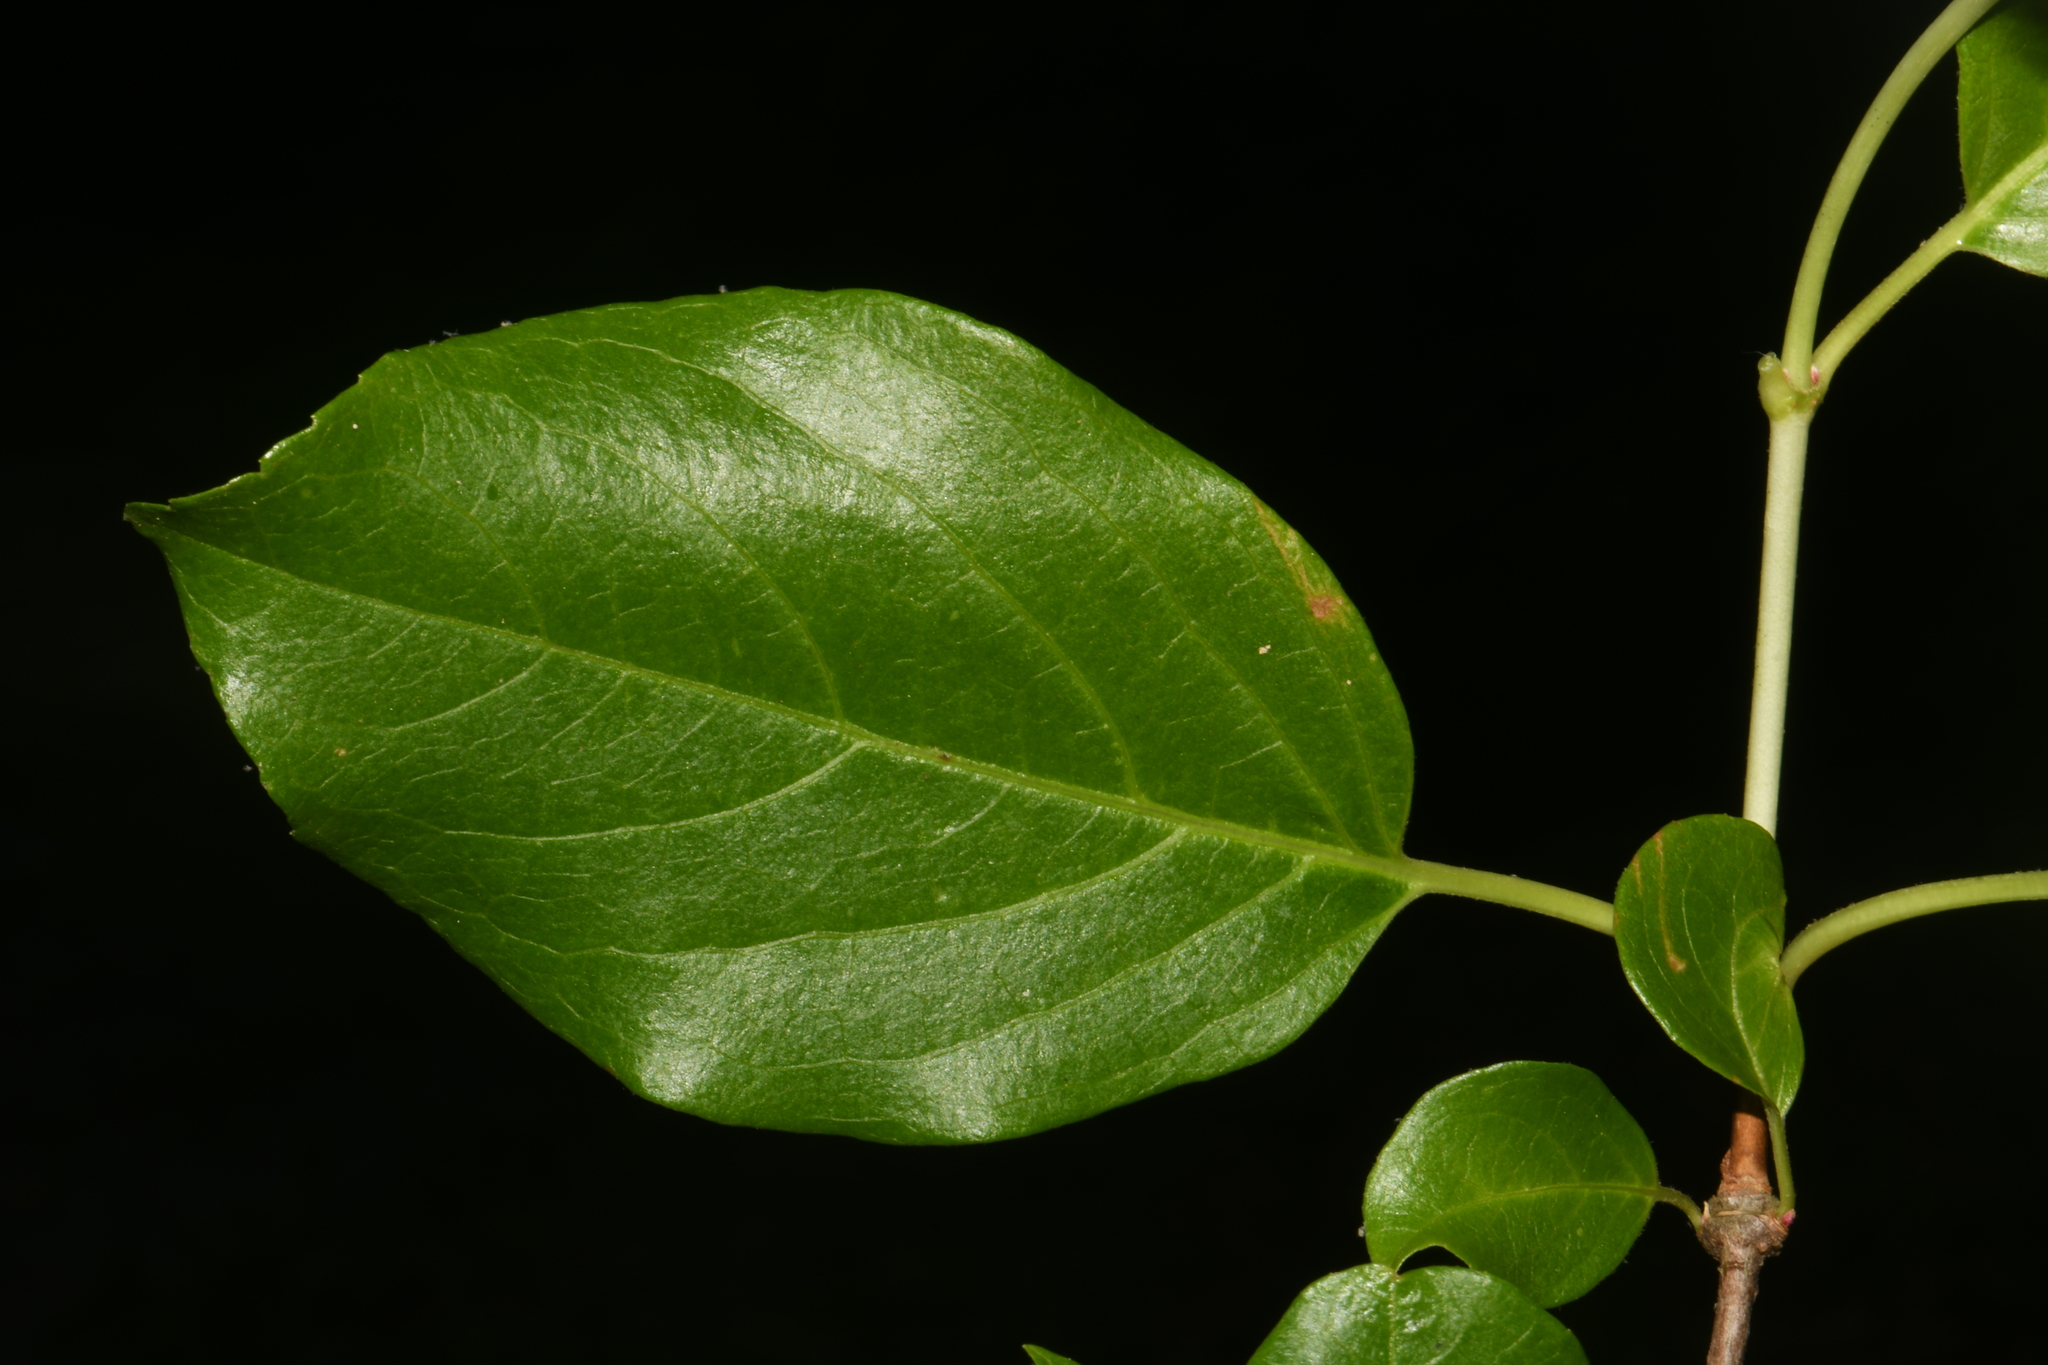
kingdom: Plantae
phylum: Tracheophyta
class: Magnoliopsida
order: Cornales
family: Hydrangeaceae
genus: Hydrangea
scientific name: Hydrangea barbara
